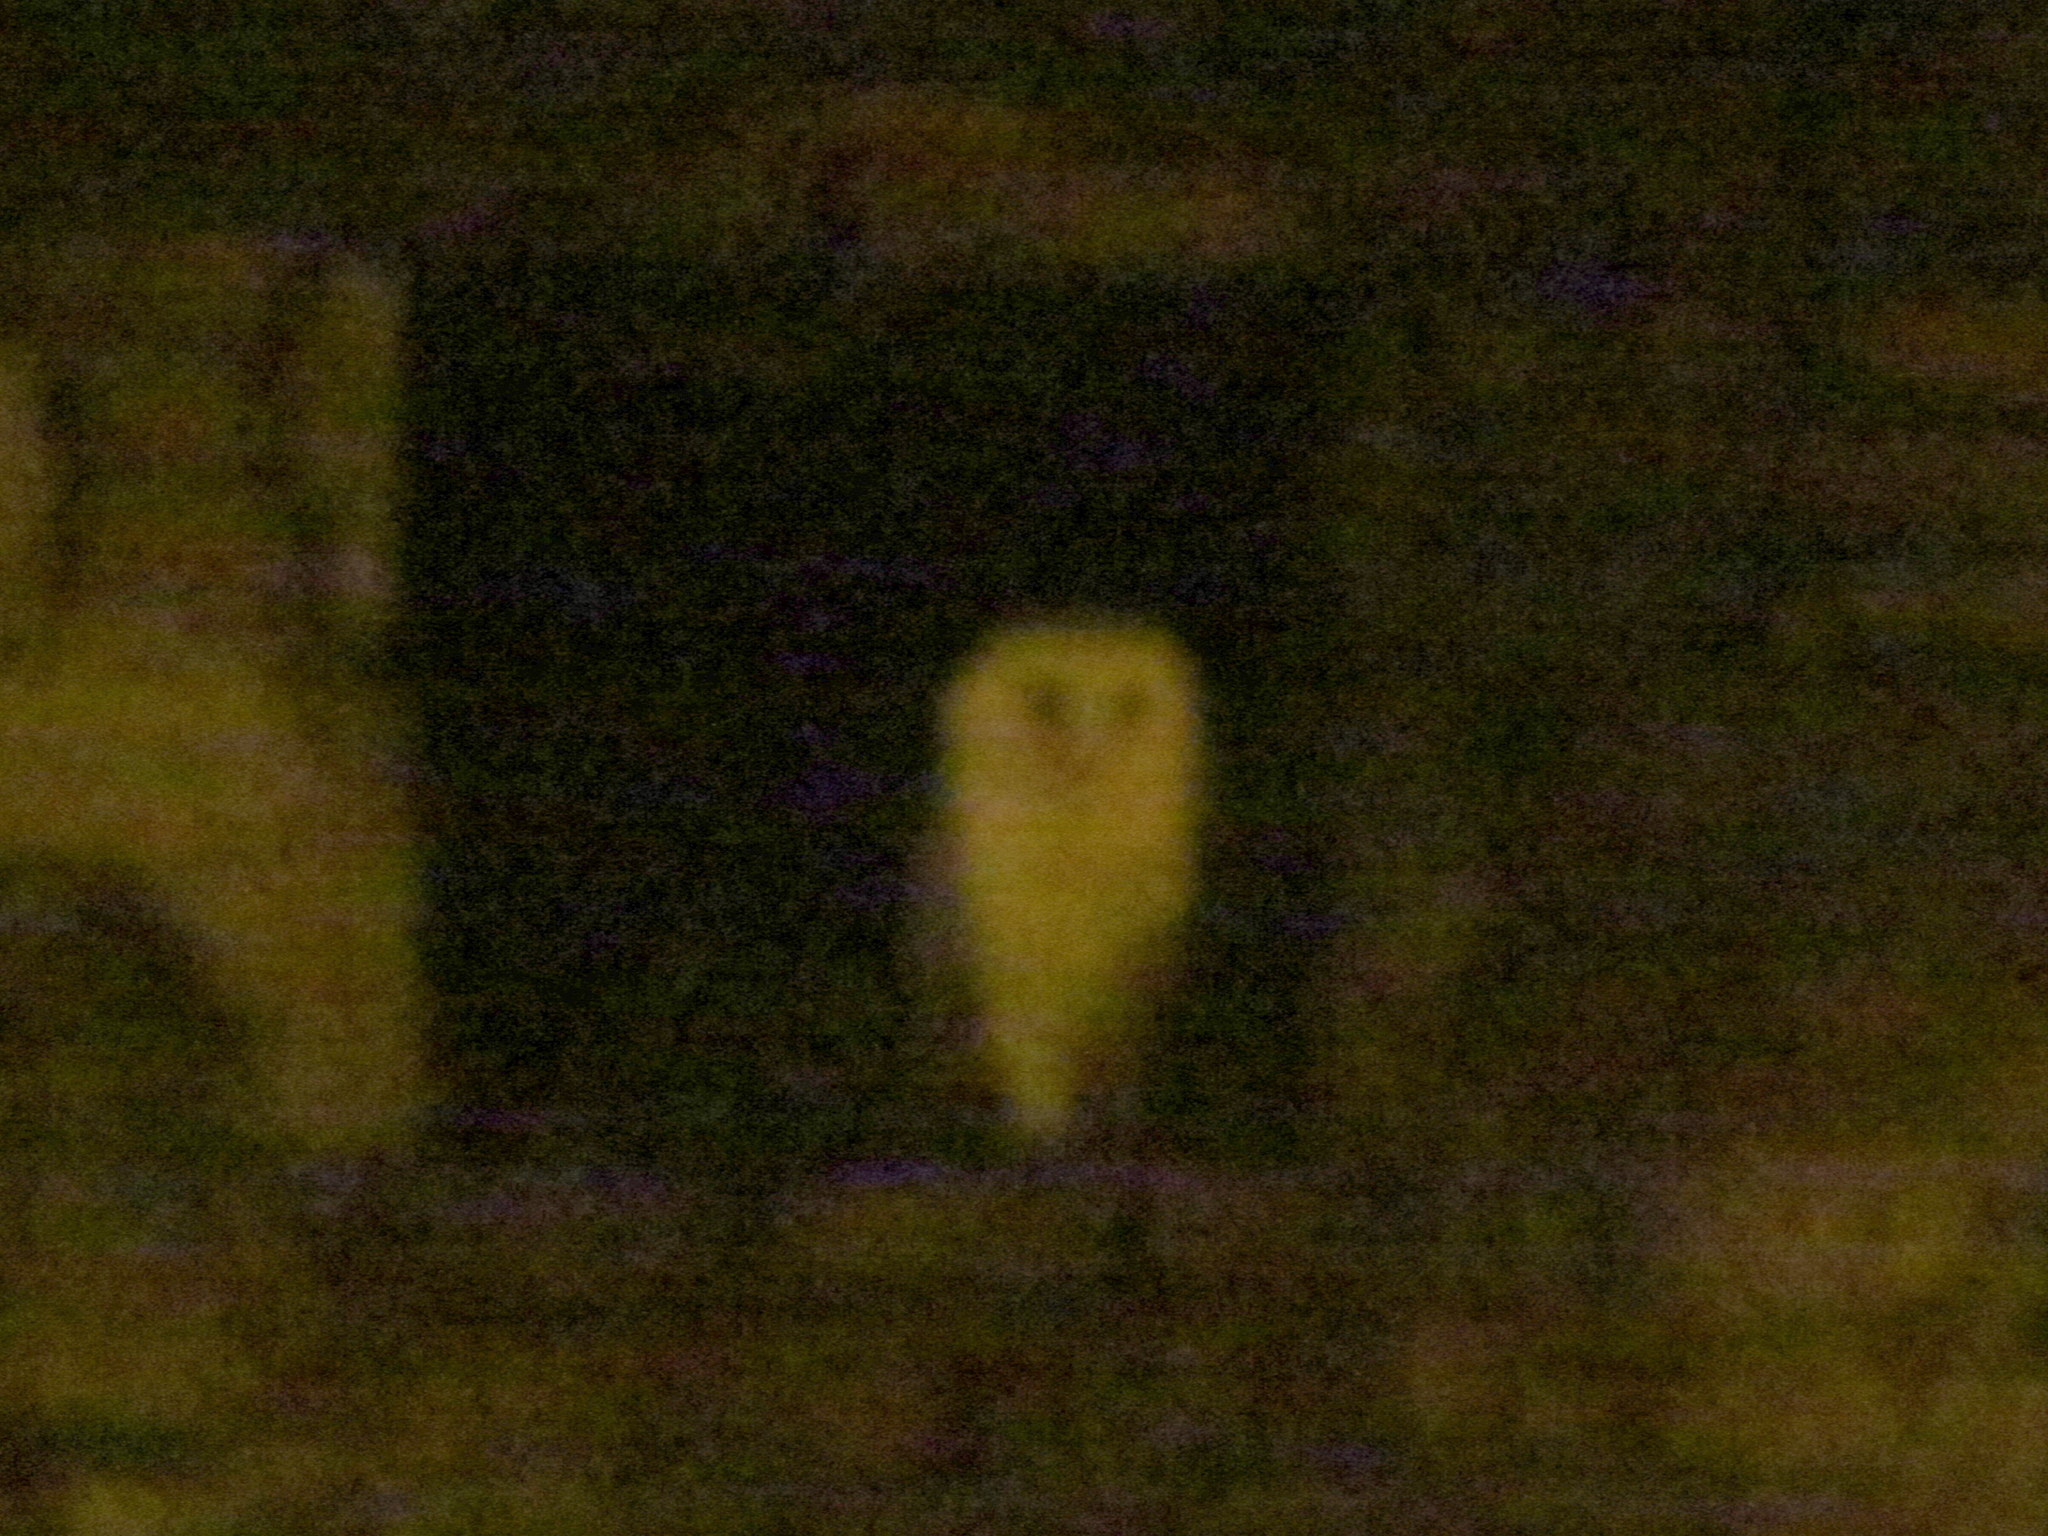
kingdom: Animalia
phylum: Chordata
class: Aves
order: Strigiformes
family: Tytonidae
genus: Tyto
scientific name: Tyto alba
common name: Barn owl
